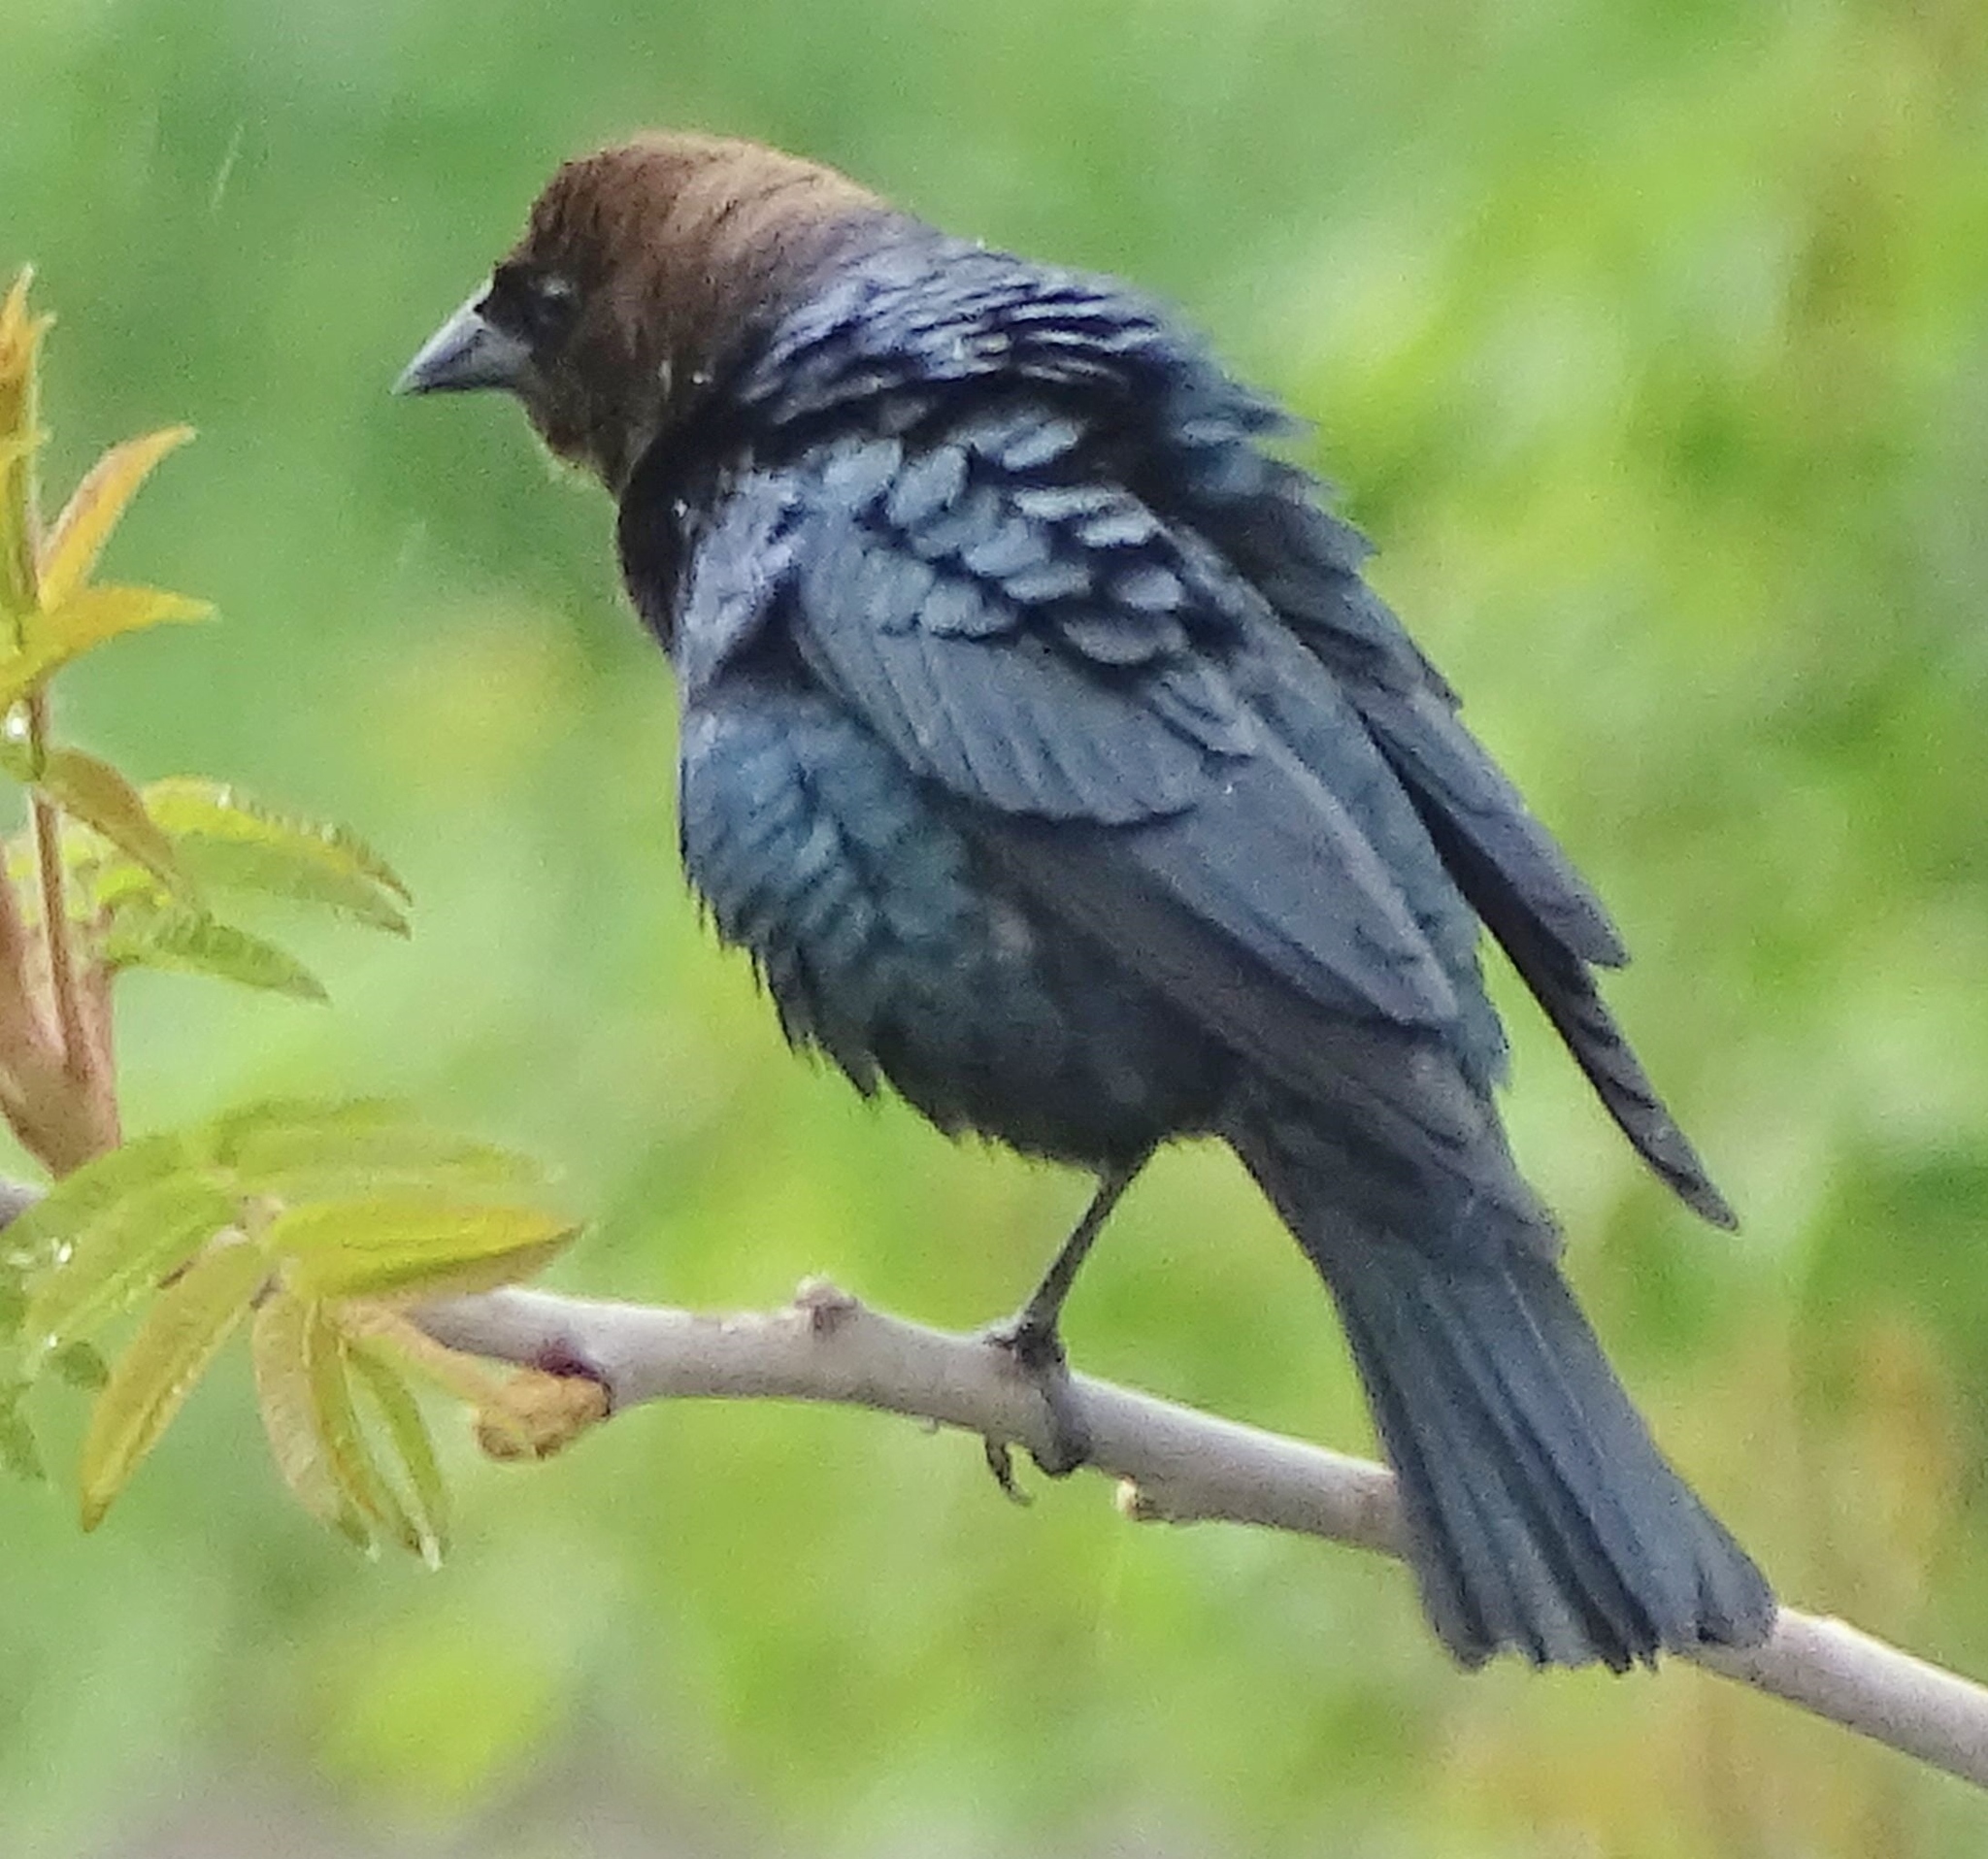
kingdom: Animalia
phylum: Chordata
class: Aves
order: Passeriformes
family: Icteridae
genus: Molothrus
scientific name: Molothrus ater
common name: Brown-headed cowbird
